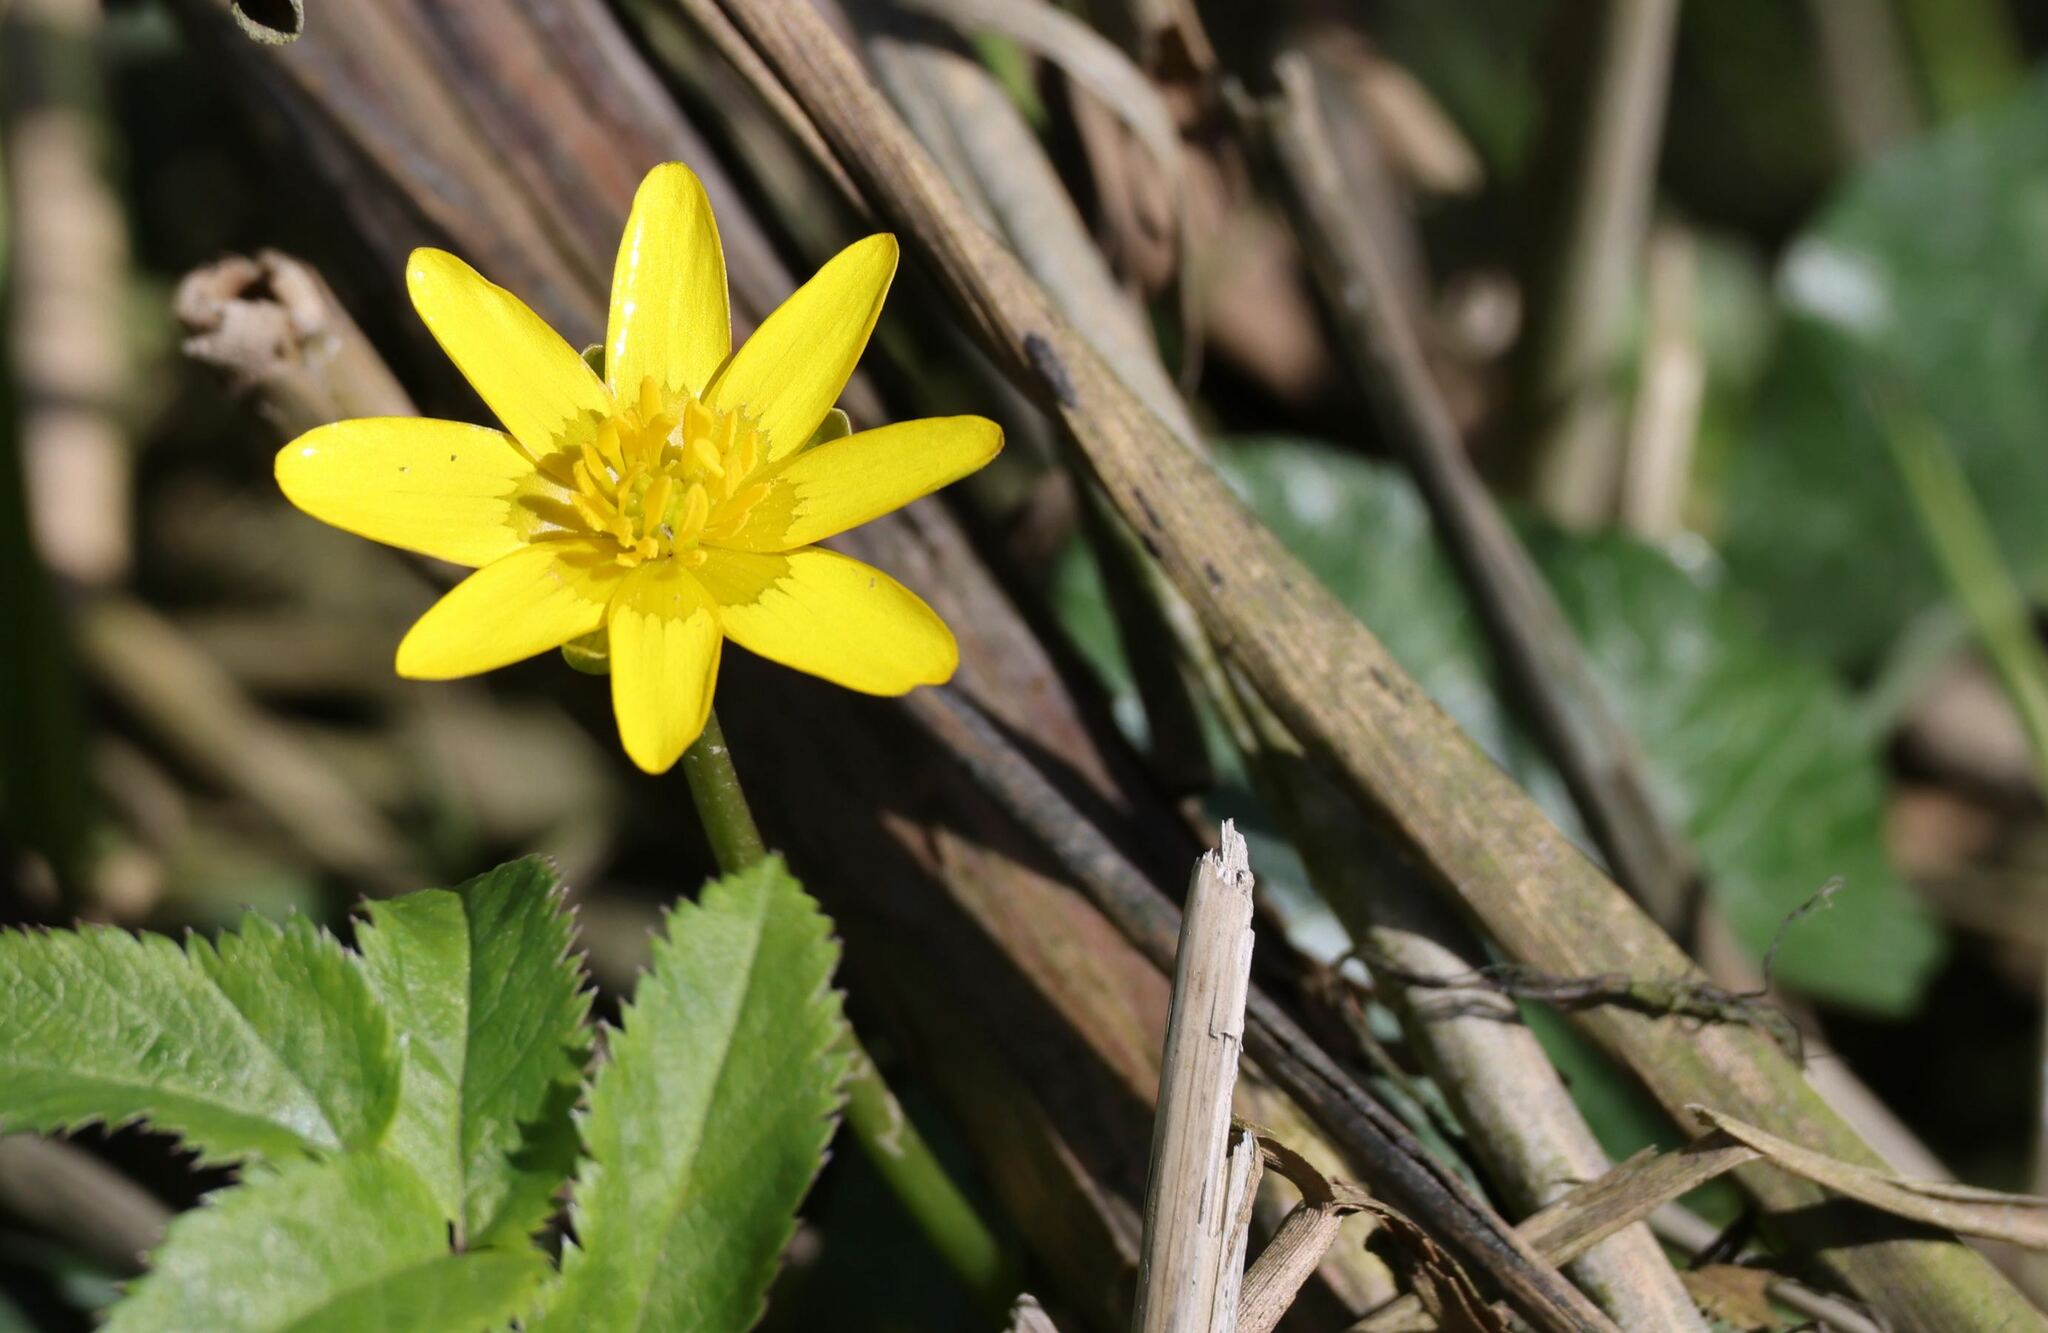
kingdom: Plantae
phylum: Tracheophyta
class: Magnoliopsida
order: Ranunculales
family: Ranunculaceae
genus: Ficaria
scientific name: Ficaria verna
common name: Lesser celandine
